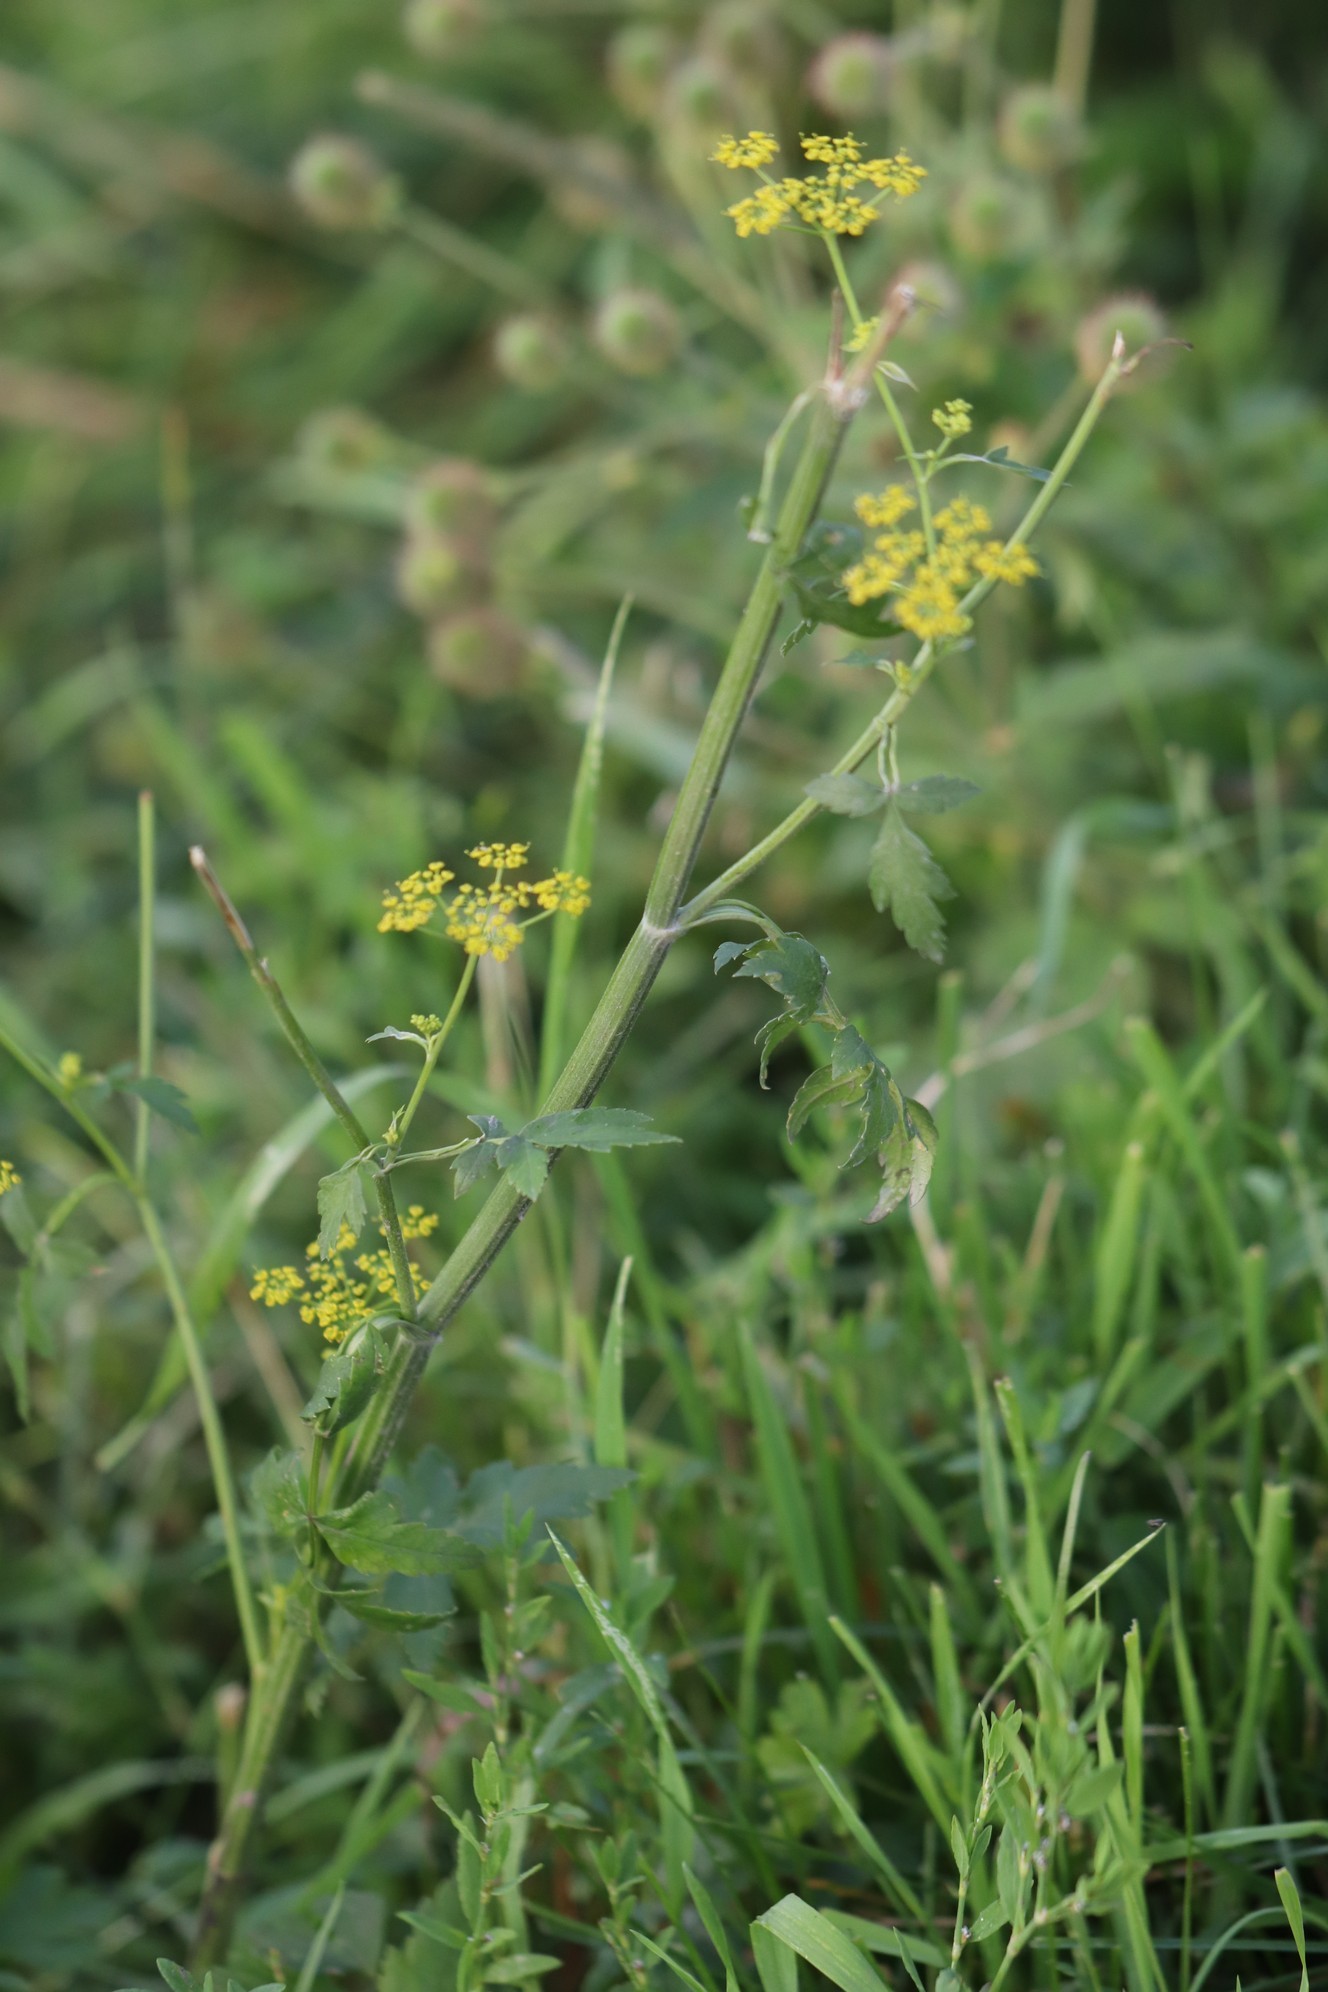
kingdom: Plantae
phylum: Tracheophyta
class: Magnoliopsida
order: Apiales
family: Apiaceae
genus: Pastinaca
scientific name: Pastinaca sativa
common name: Wild parsnip
